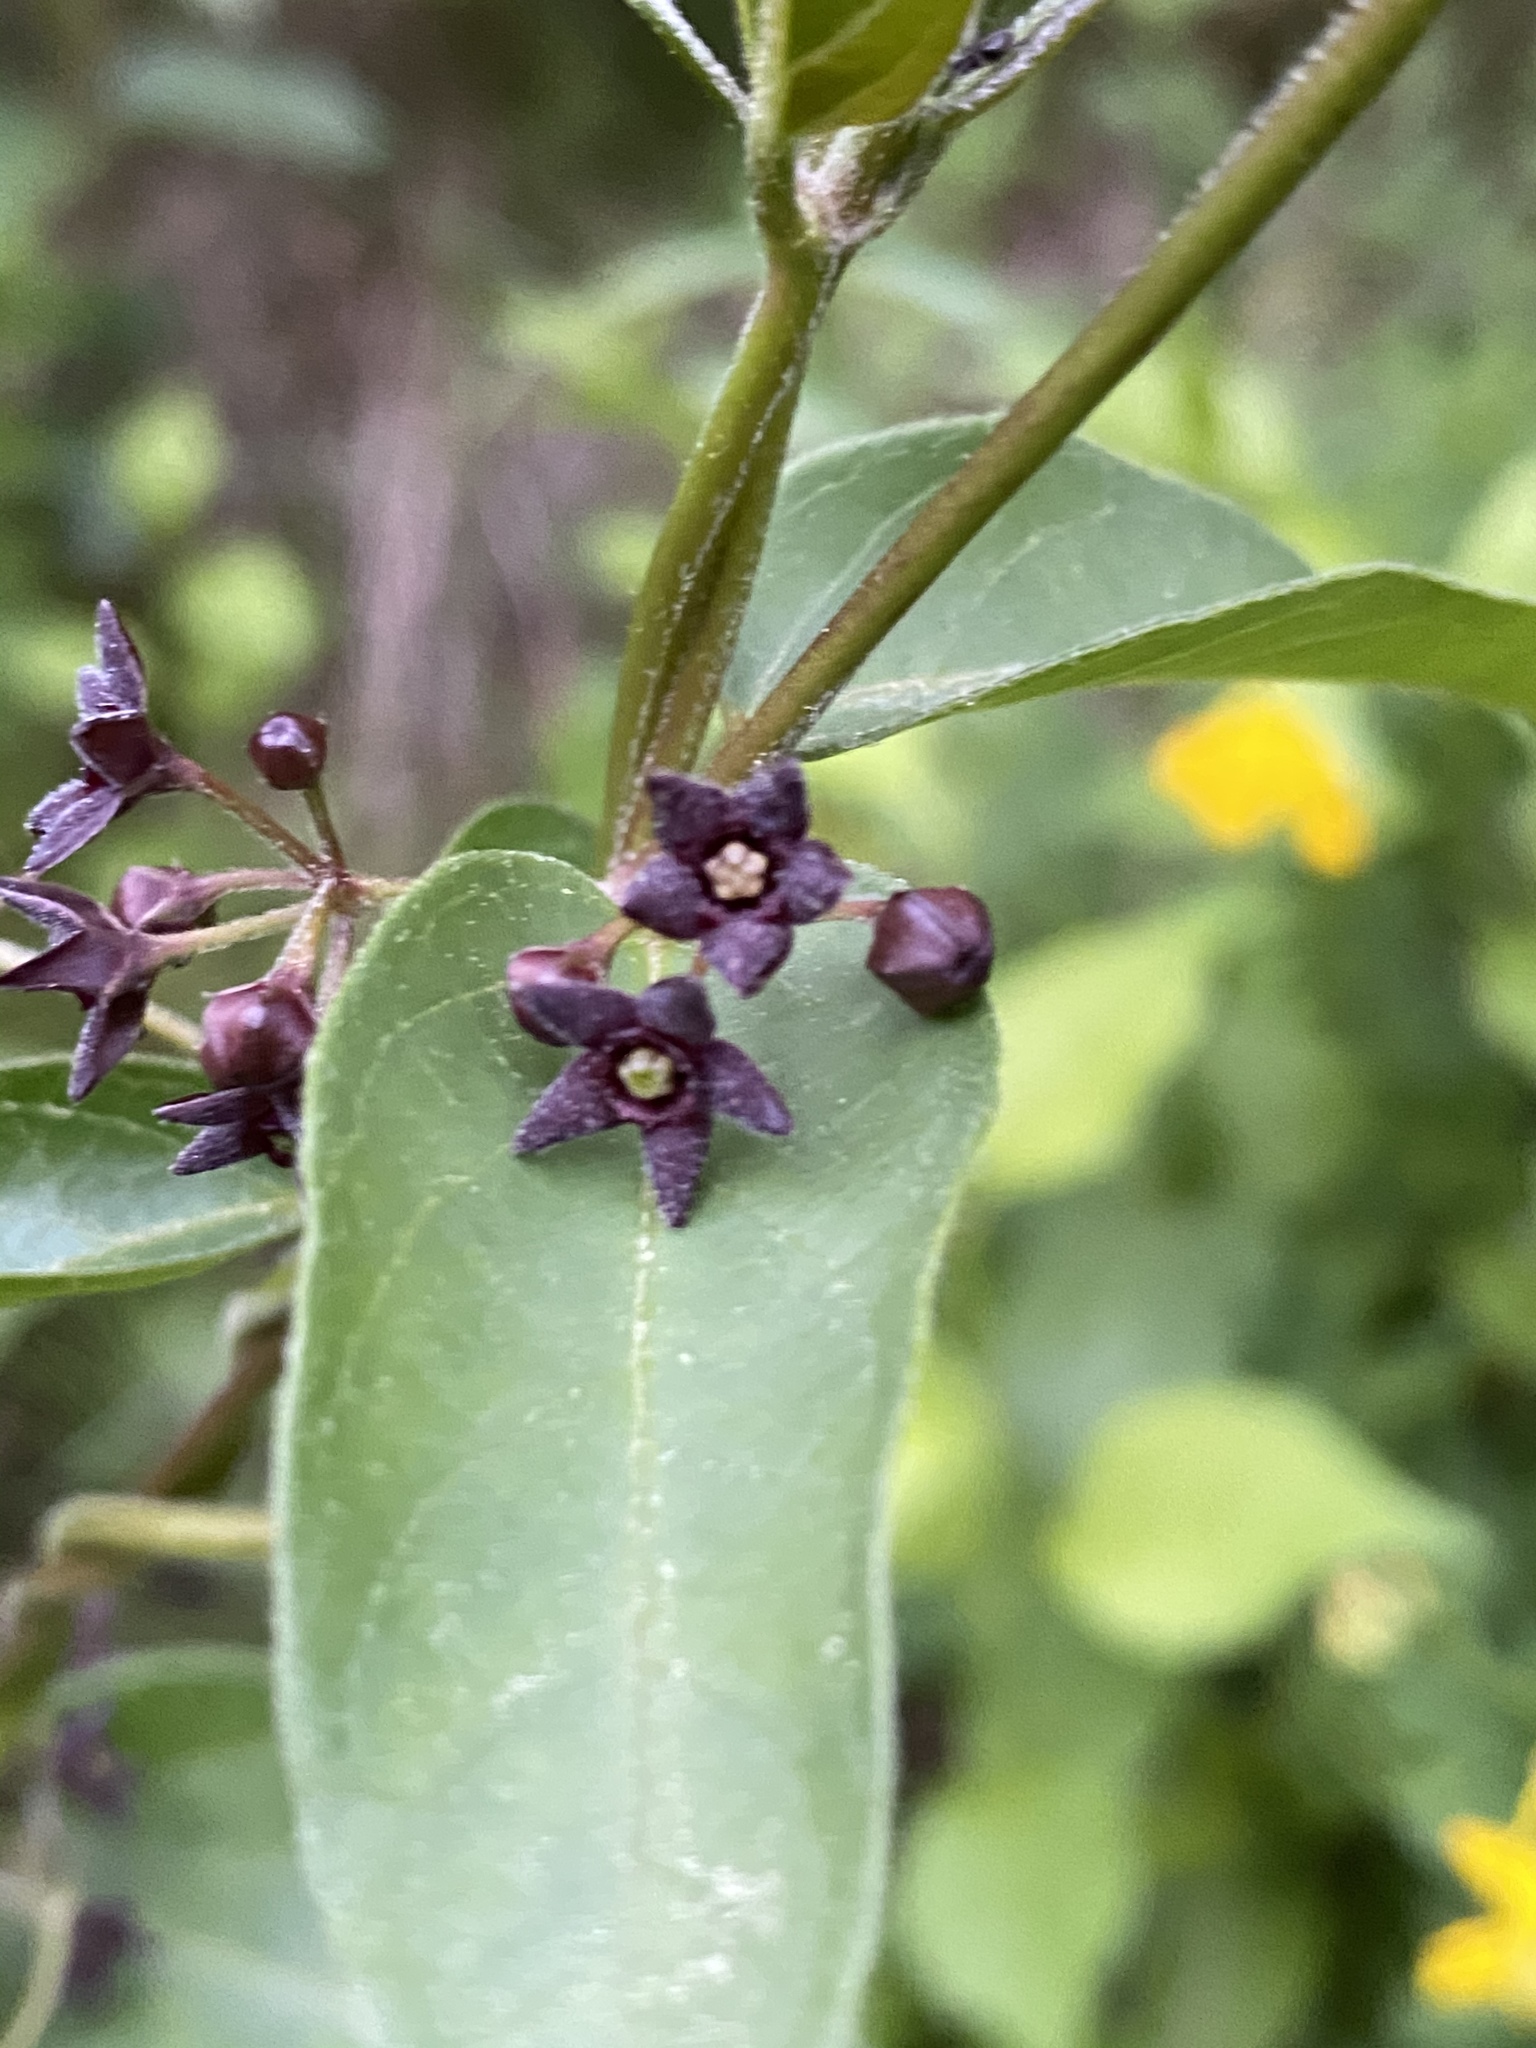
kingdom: Plantae
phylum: Tracheophyta
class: Magnoliopsida
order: Gentianales
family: Apocynaceae
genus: Vincetoxicum
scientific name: Vincetoxicum nigrum
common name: Black swallow-wort
